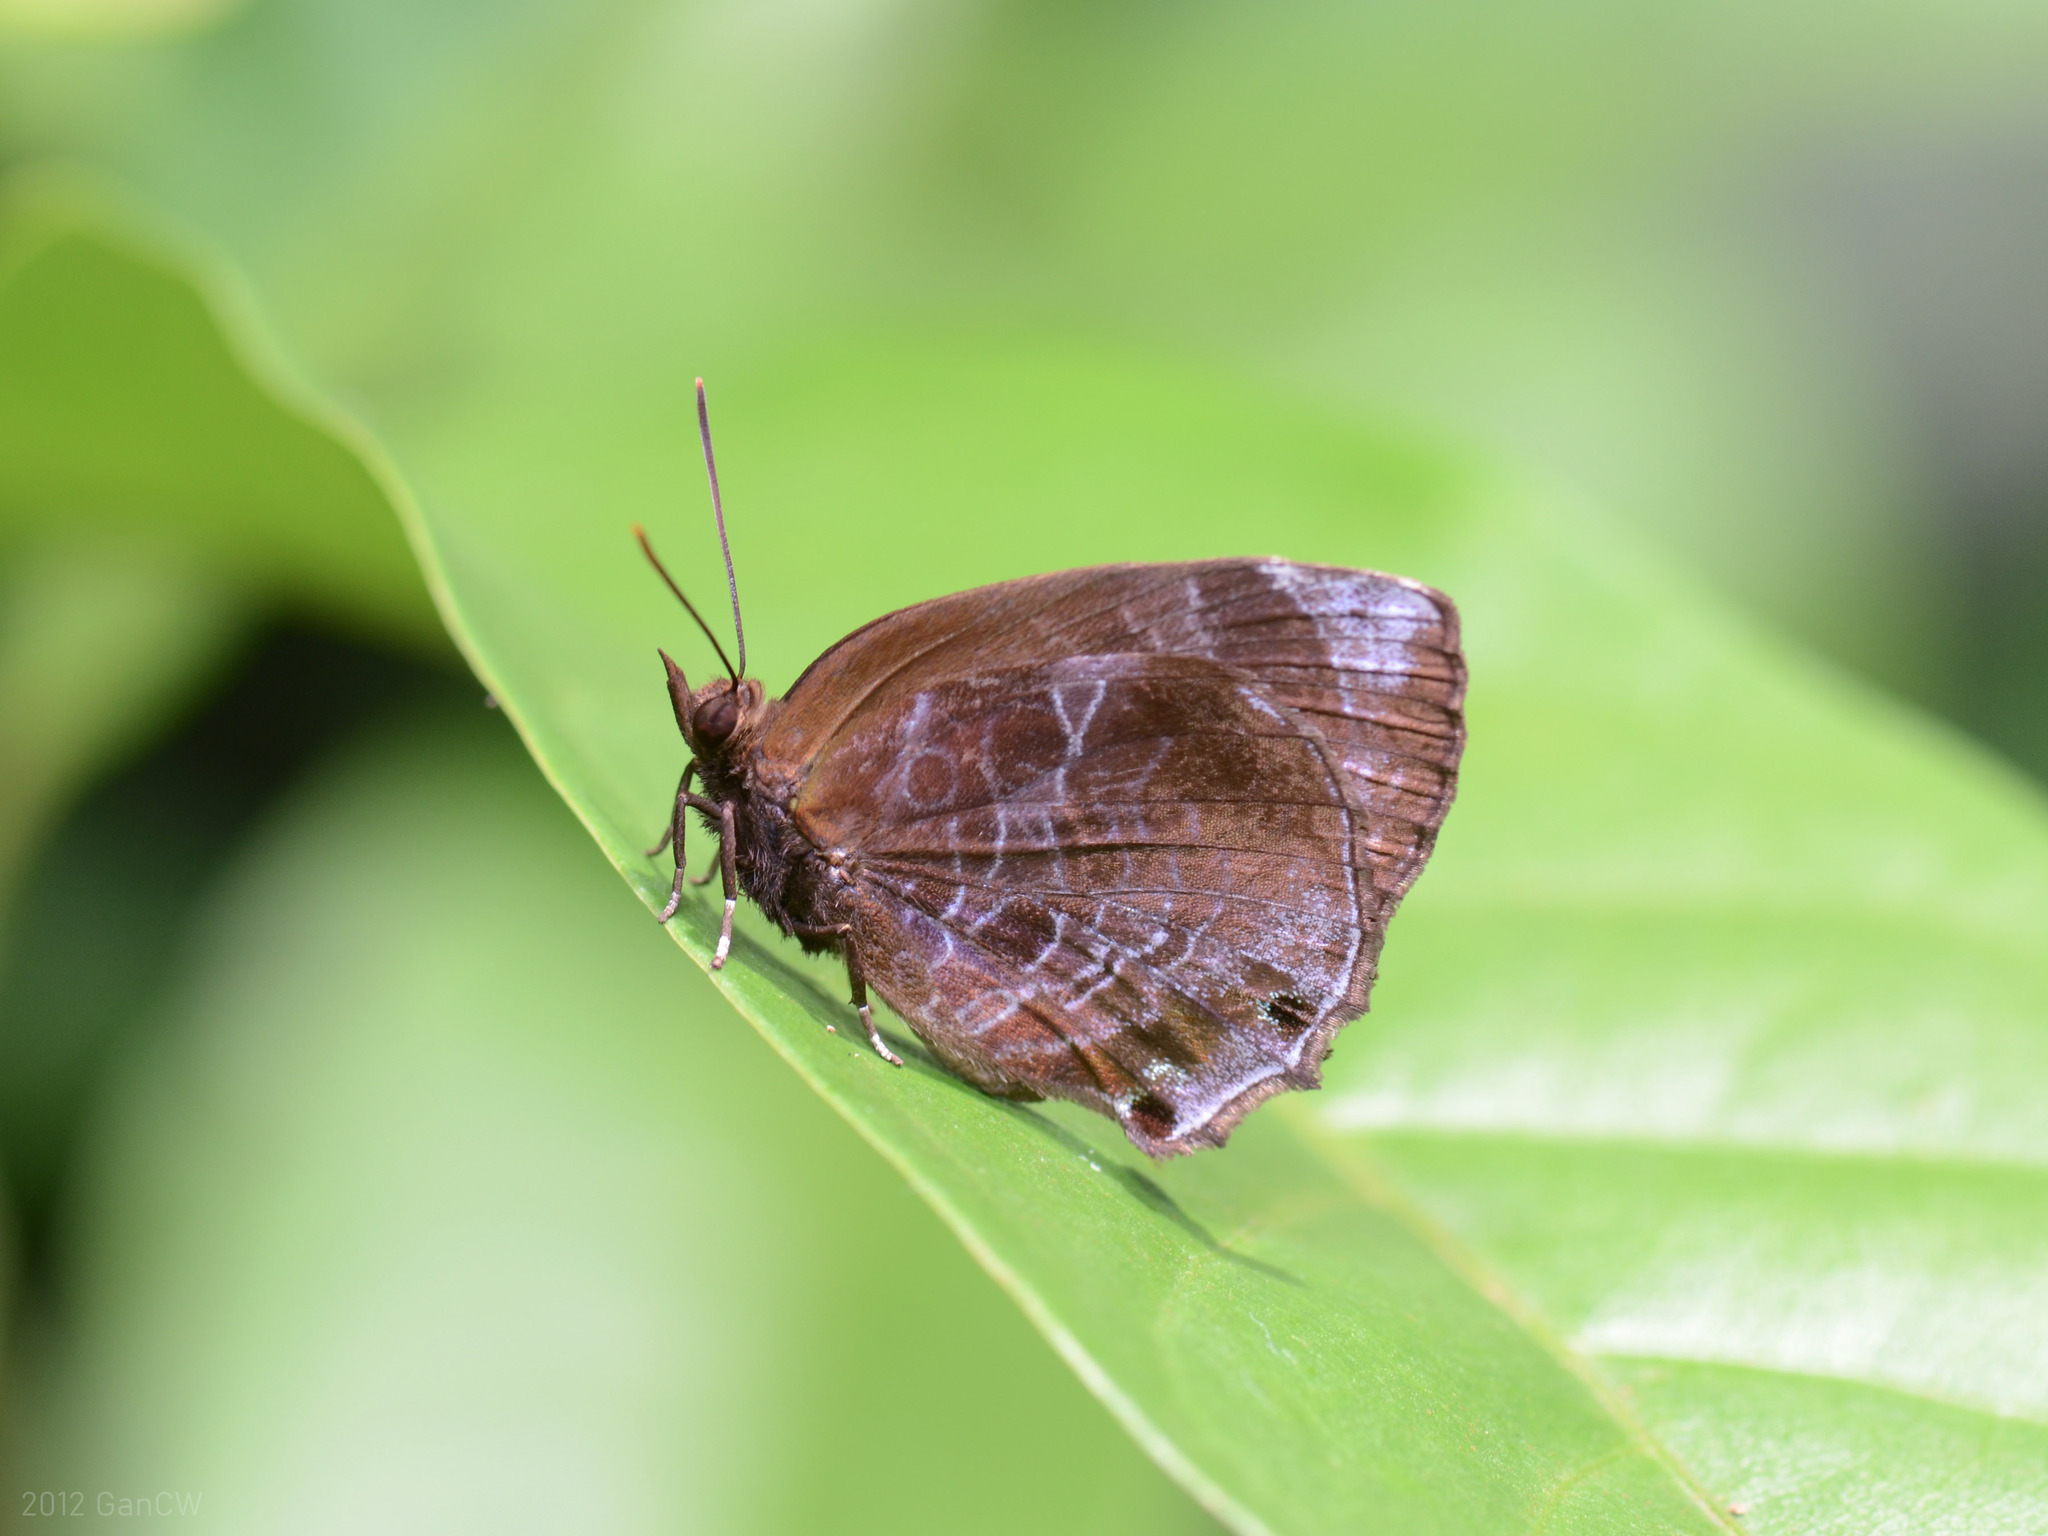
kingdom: Animalia
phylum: Arthropoda
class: Insecta
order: Lepidoptera
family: Lycaenidae
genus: Flos
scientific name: Flos
